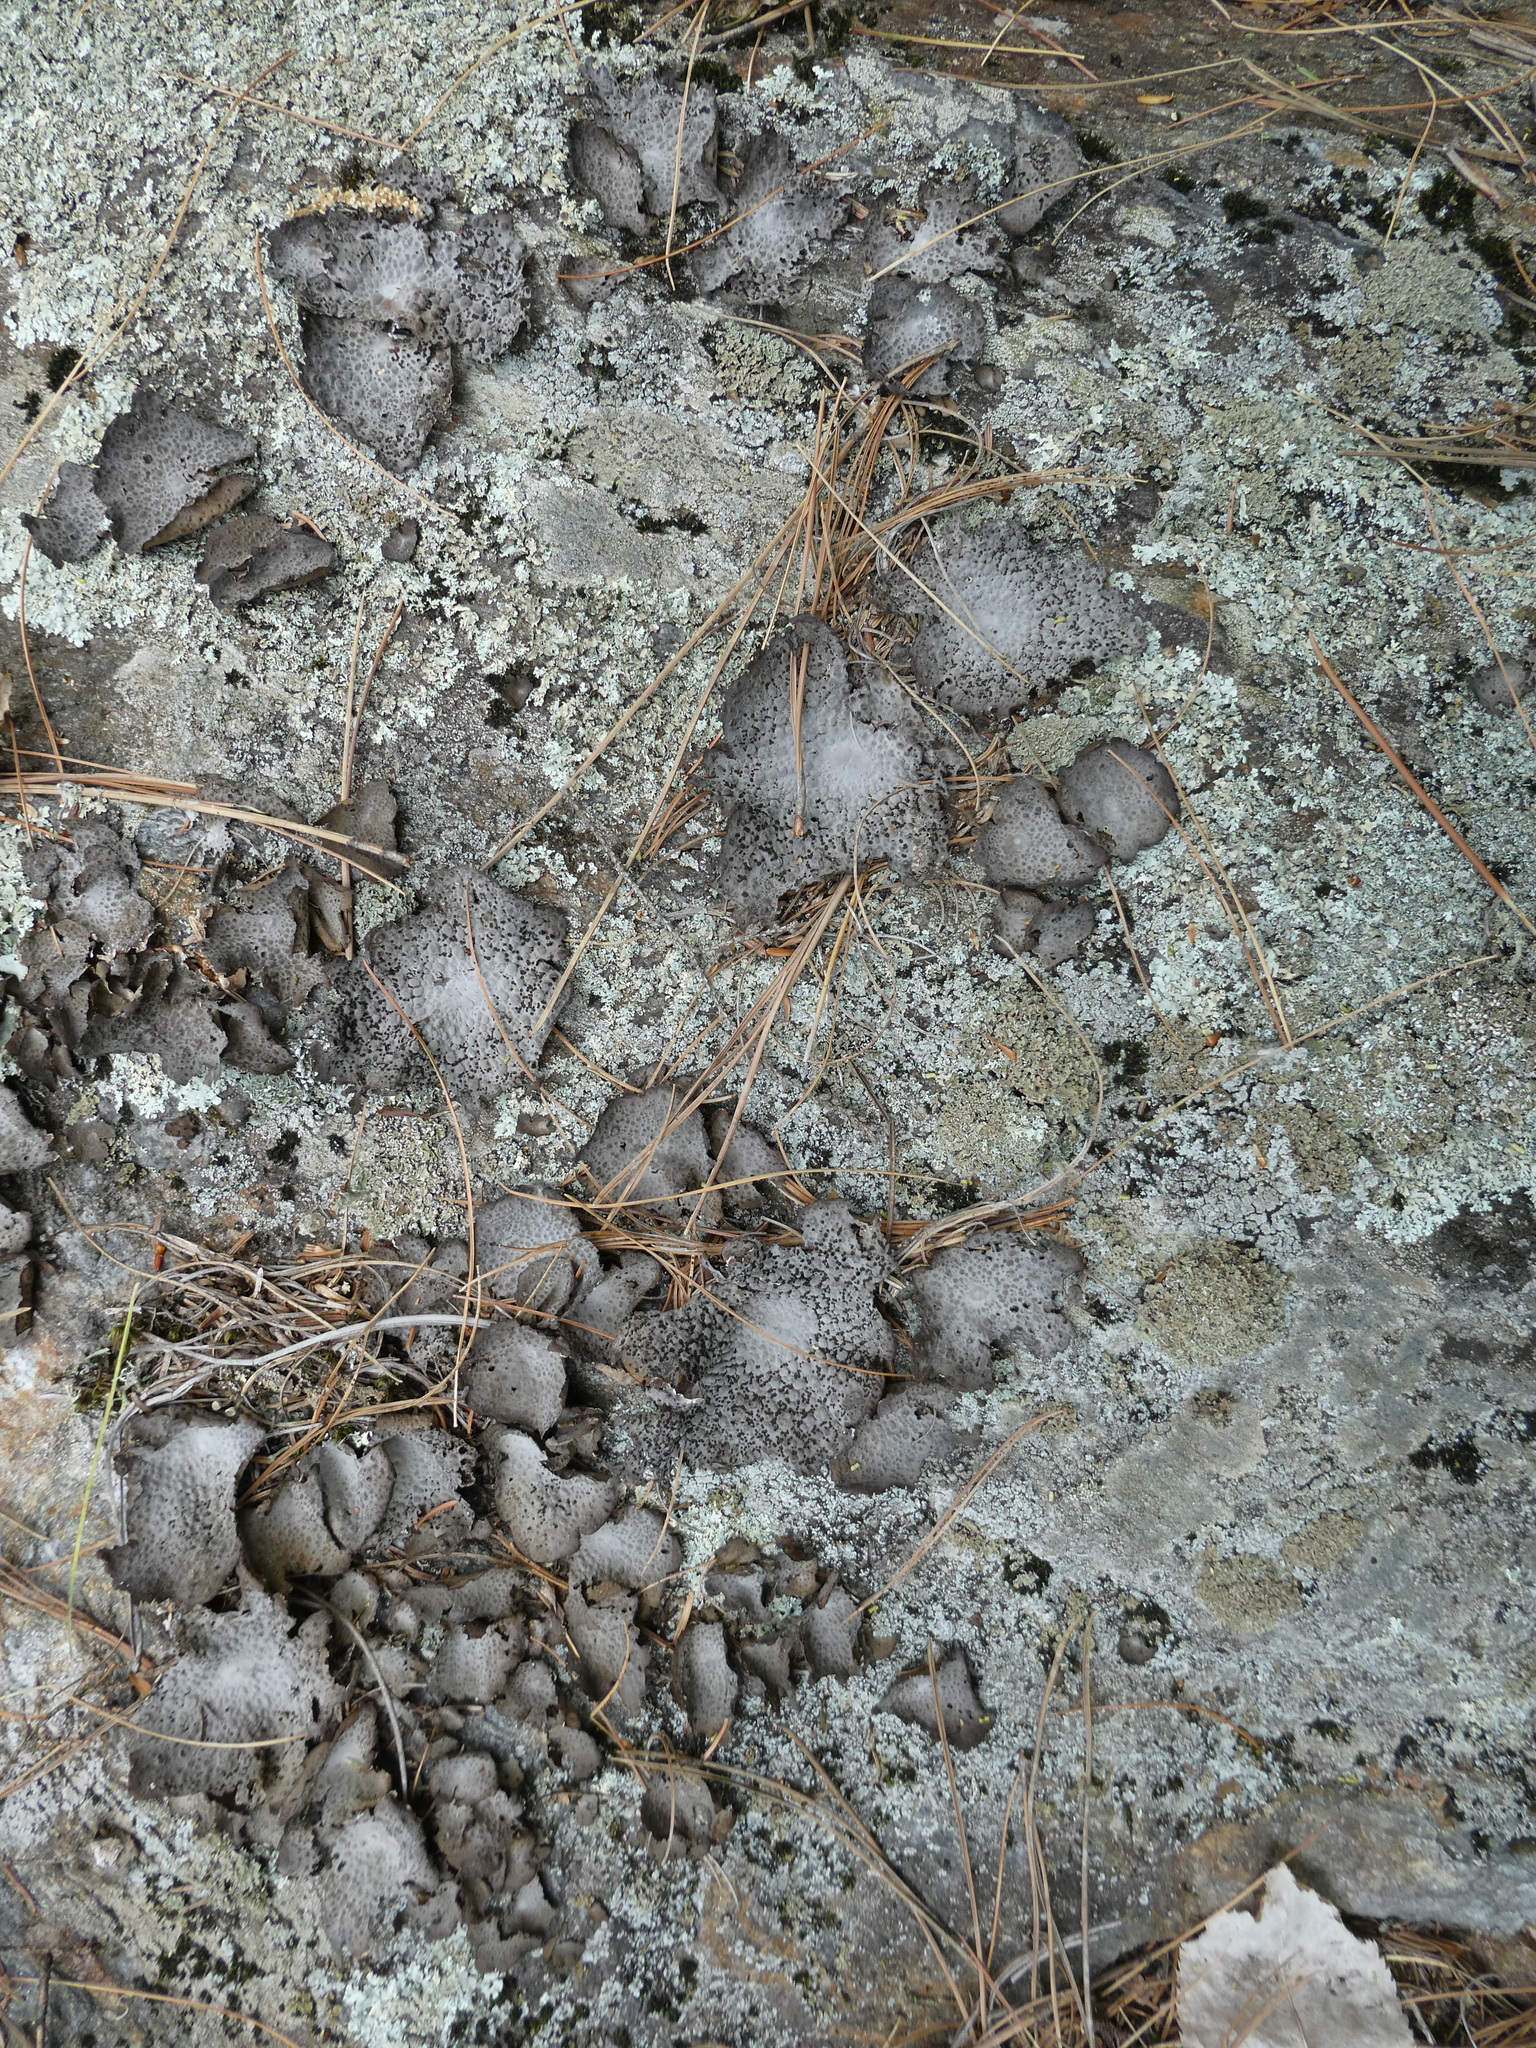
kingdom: Fungi
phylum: Ascomycota
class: Lecanoromycetes
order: Umbilicariales
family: Umbilicariaceae
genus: Lasallia
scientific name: Lasallia papulosa
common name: Common toadskin lichen
